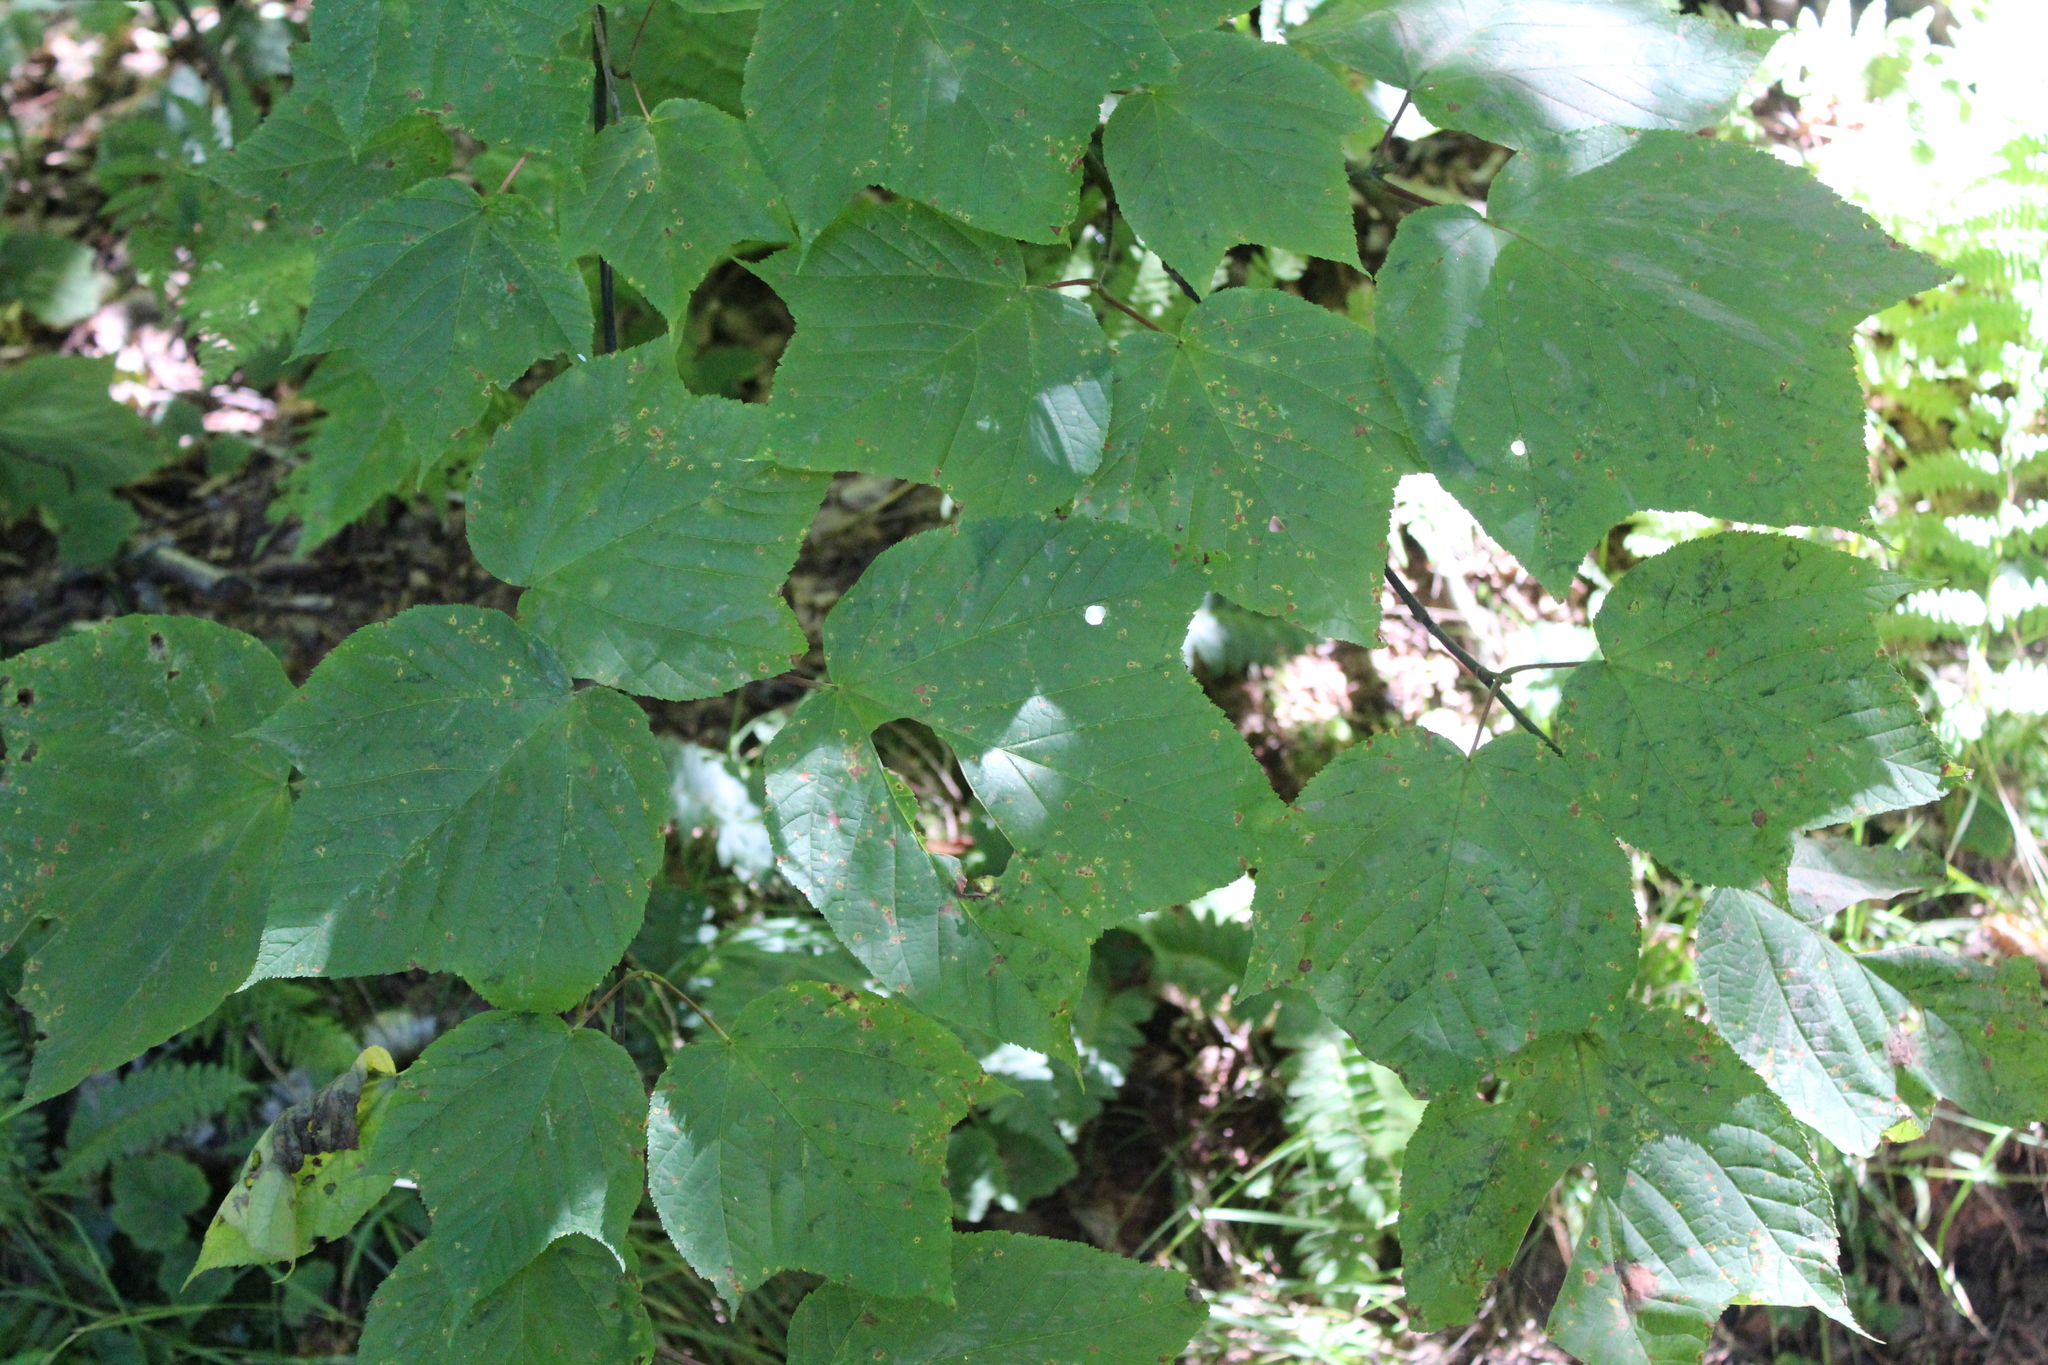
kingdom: Plantae
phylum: Tracheophyta
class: Magnoliopsida
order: Sapindales
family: Sapindaceae
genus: Acer
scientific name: Acer pensylvanicum
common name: Moosewood
